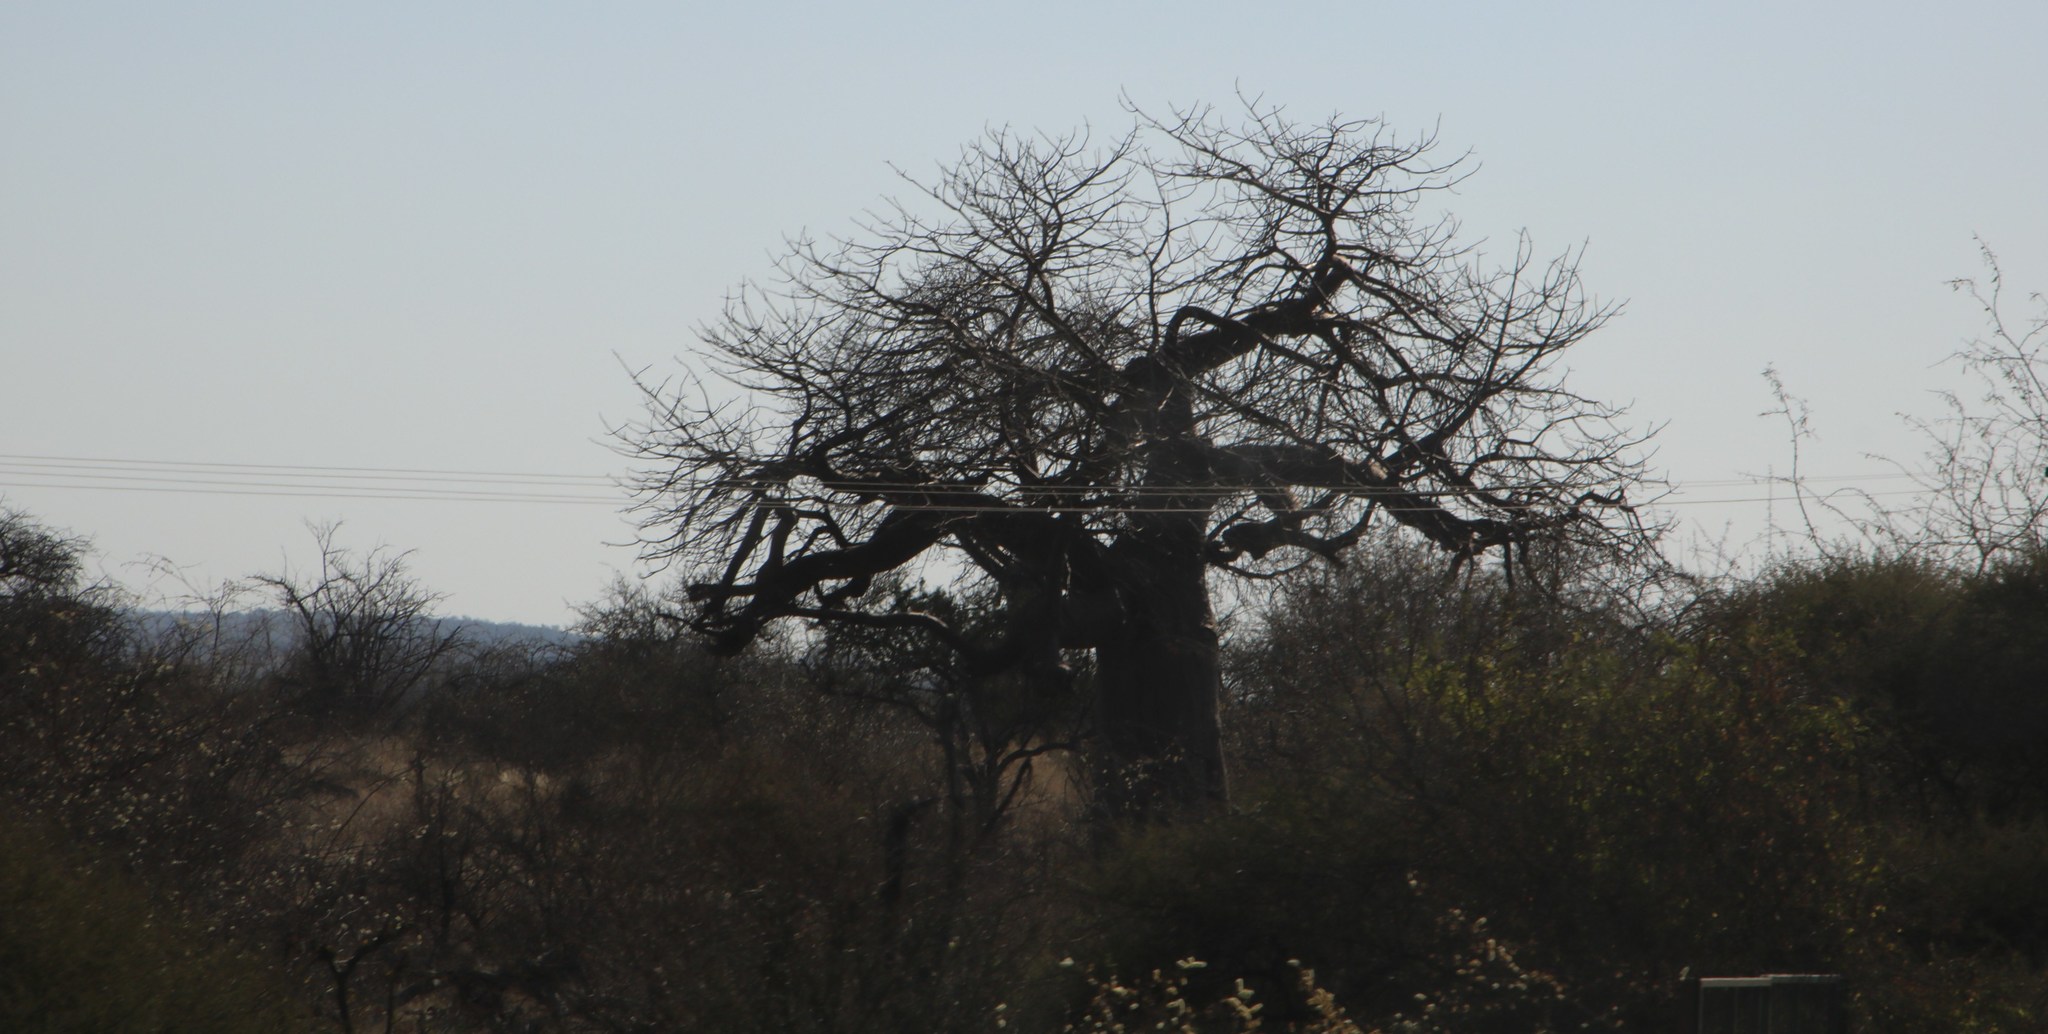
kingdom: Plantae
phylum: Tracheophyta
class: Magnoliopsida
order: Malvales
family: Malvaceae
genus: Adansonia
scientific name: Adansonia digitata
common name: Dead-rat-tree
